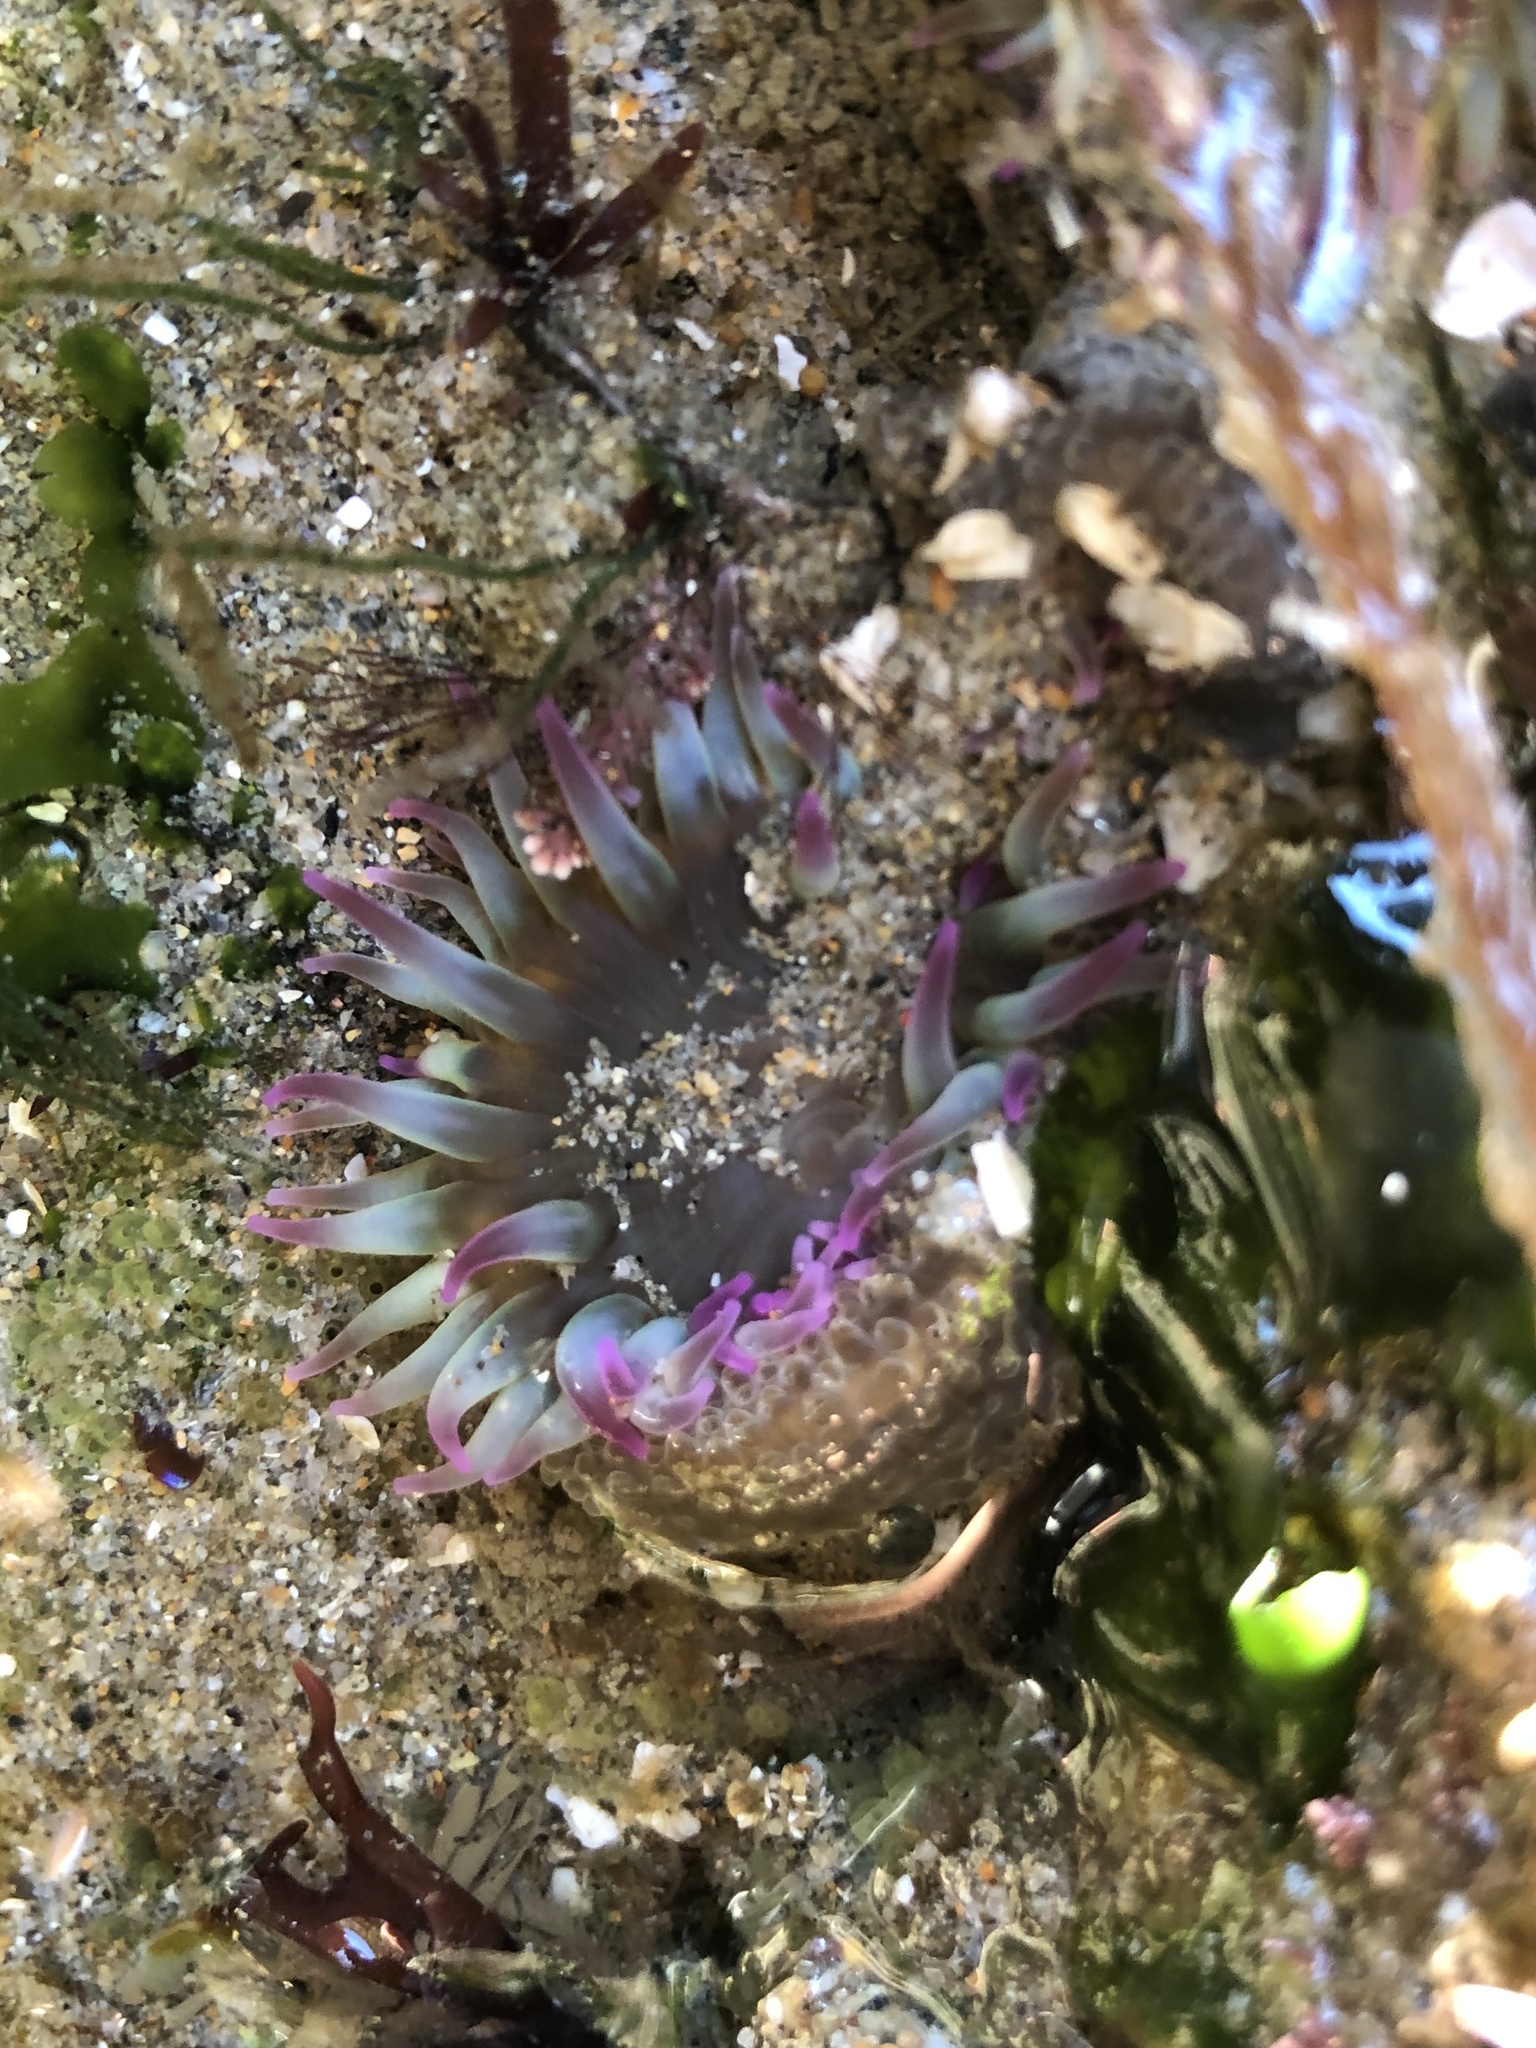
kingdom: Animalia
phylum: Cnidaria
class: Anthozoa
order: Actiniaria
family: Actiniidae
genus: Anthopleura
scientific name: Anthopleura elegantissima
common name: Clonal anemone
